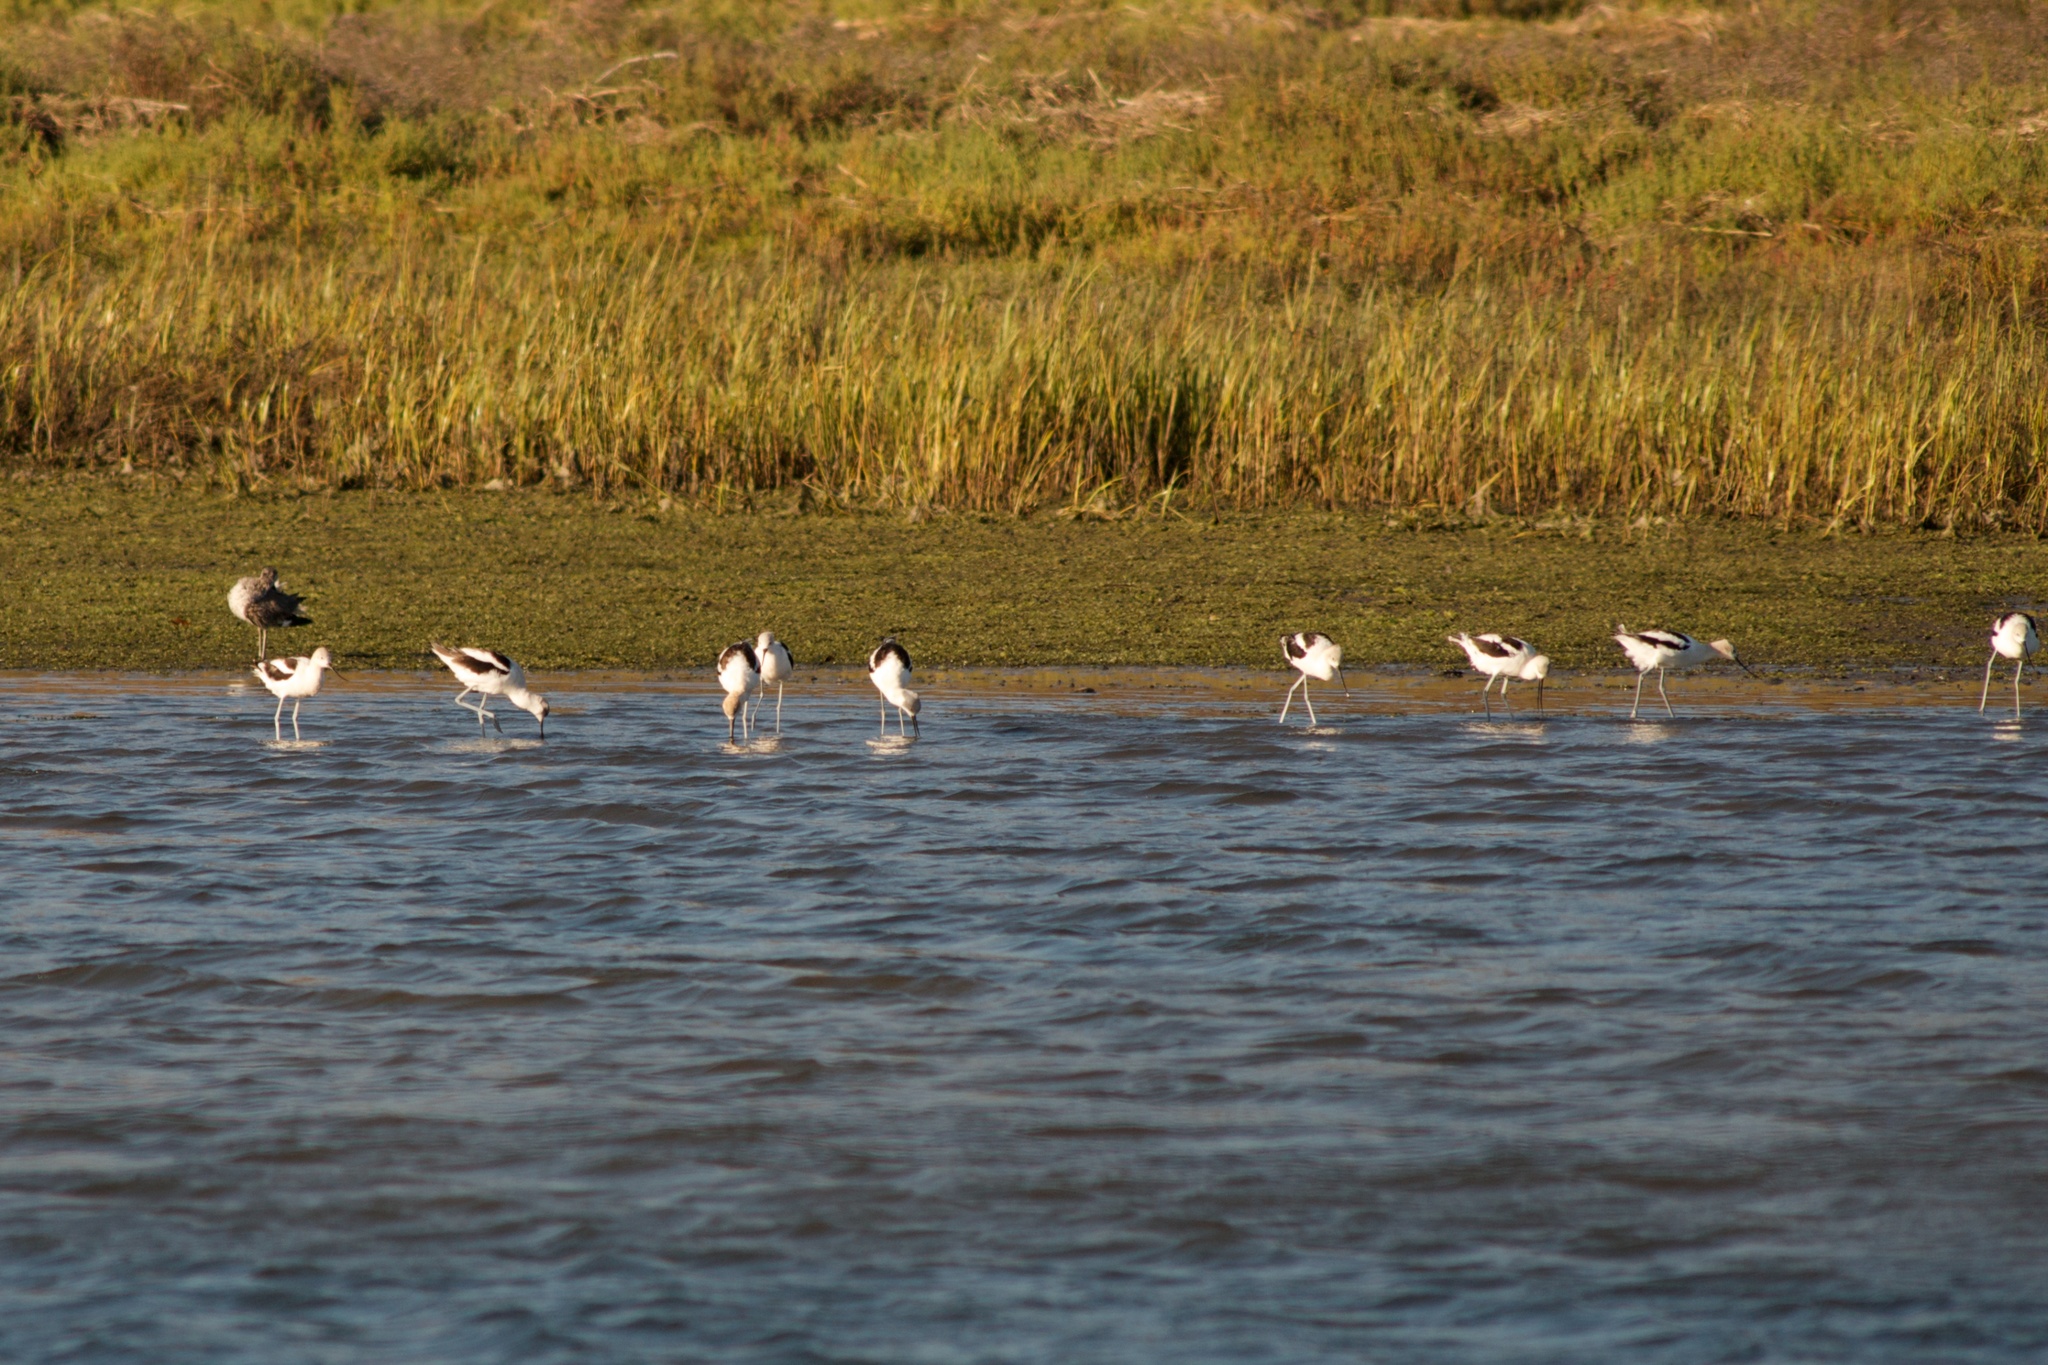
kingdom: Animalia
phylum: Chordata
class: Aves
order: Charadriiformes
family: Recurvirostridae
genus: Recurvirostra
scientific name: Recurvirostra americana
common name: American avocet
